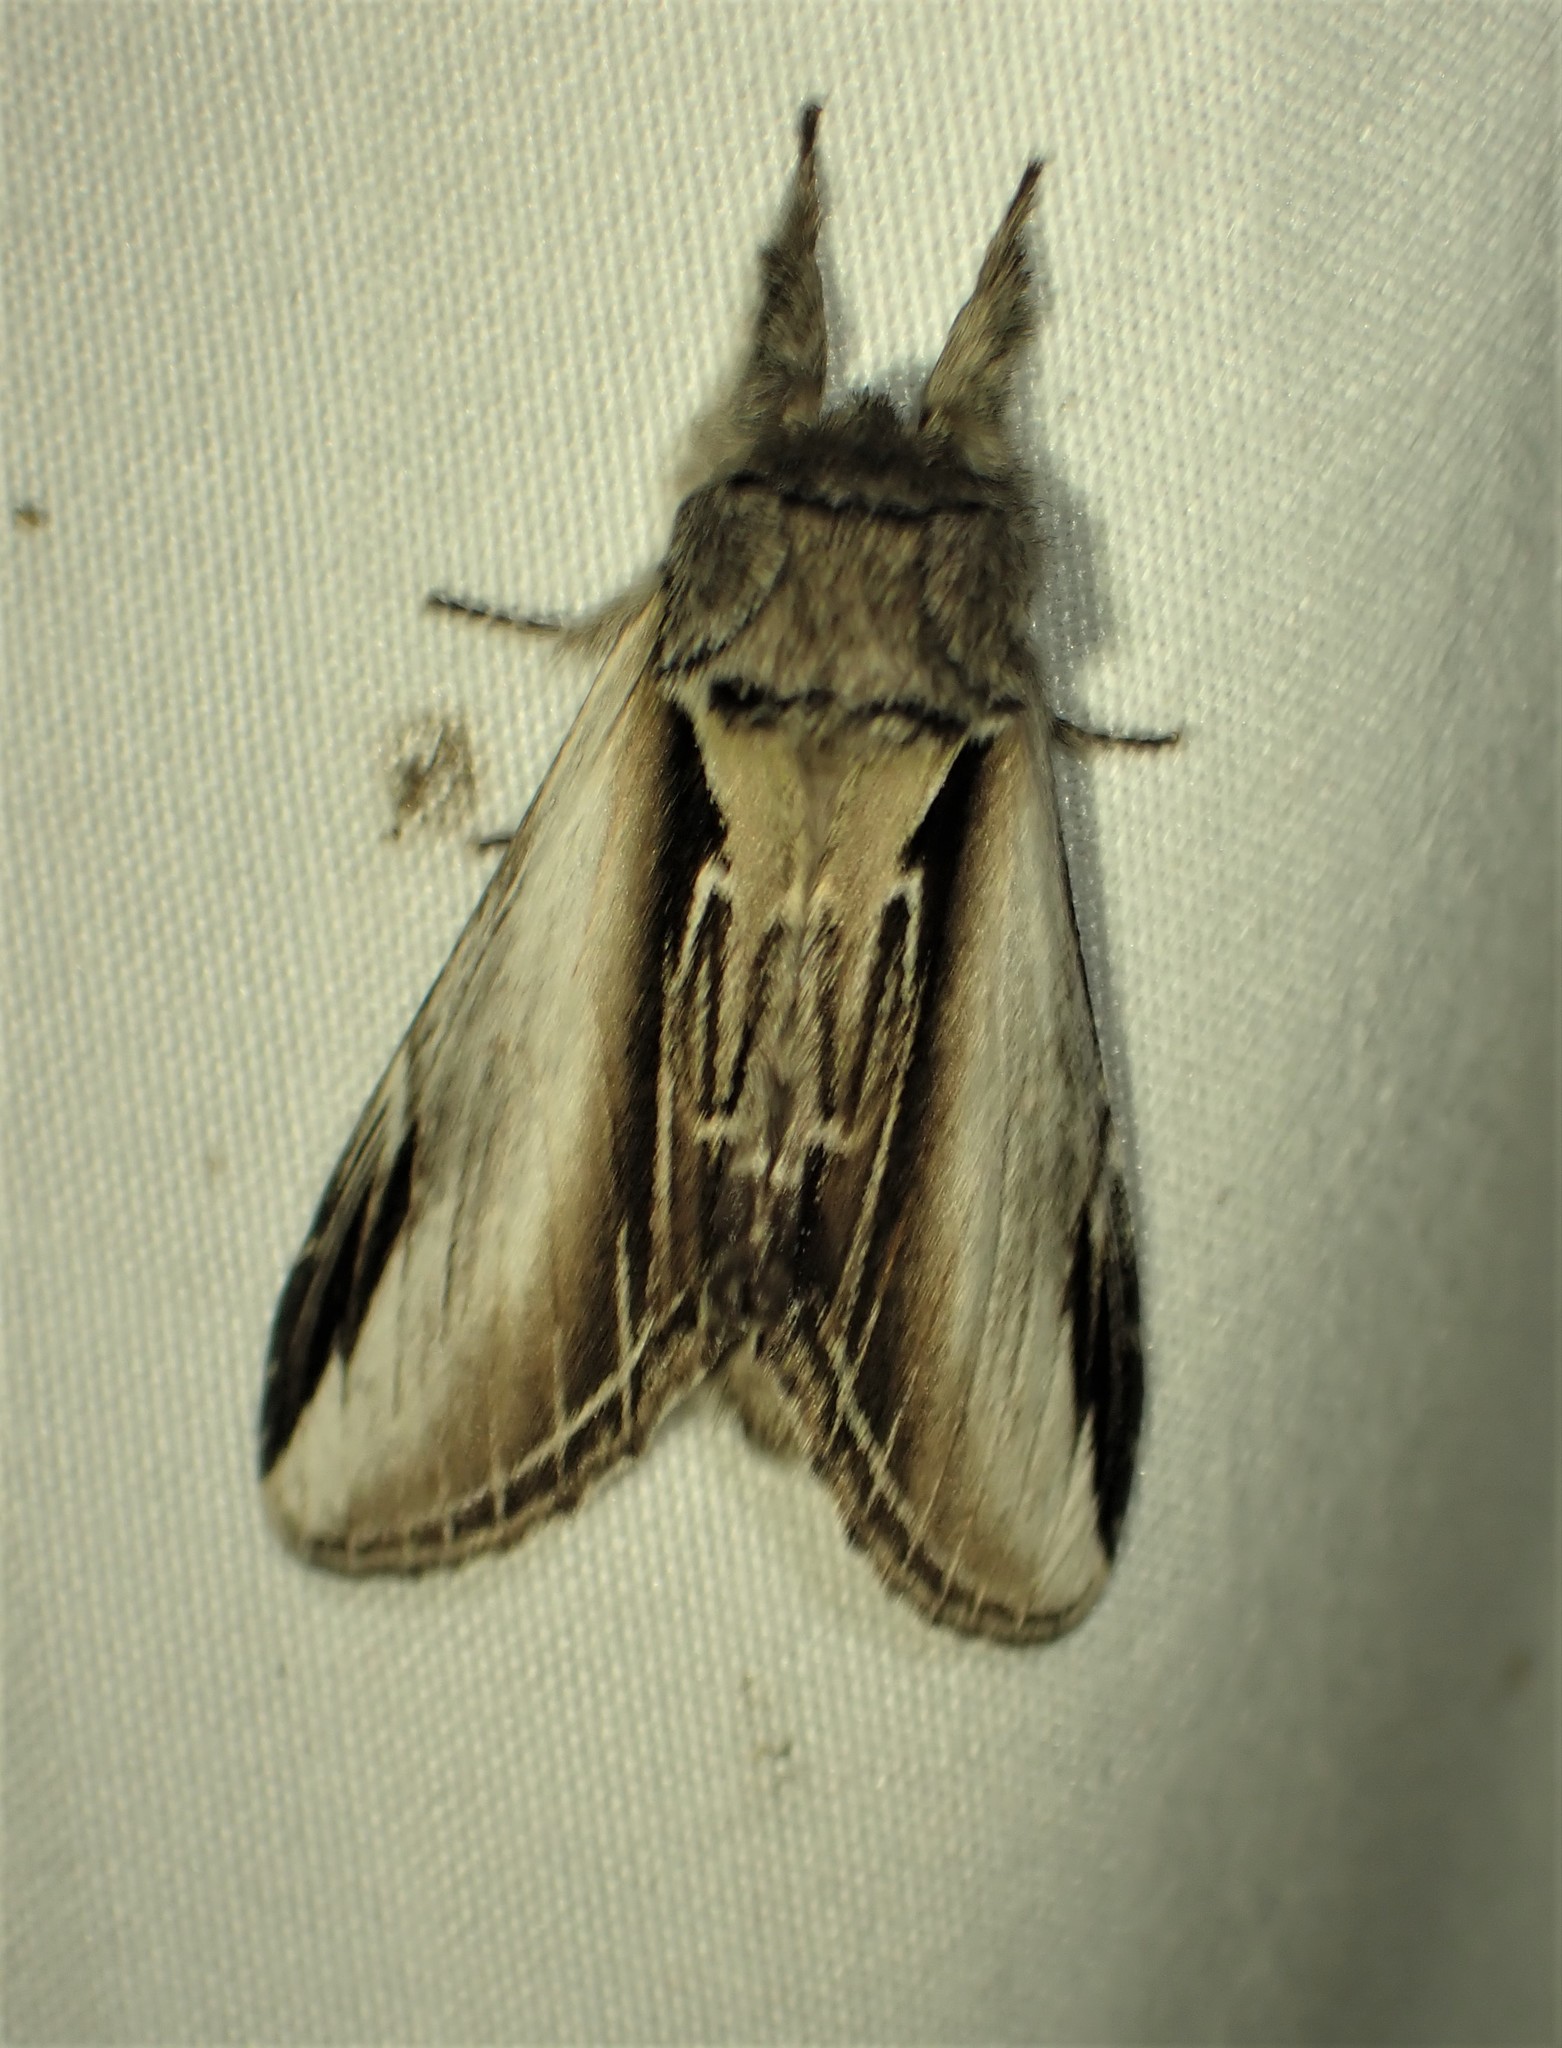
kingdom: Animalia
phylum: Arthropoda
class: Insecta
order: Lepidoptera
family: Notodontidae
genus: Pheosia
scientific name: Pheosia rimosa
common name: Black-rimmed prominent
